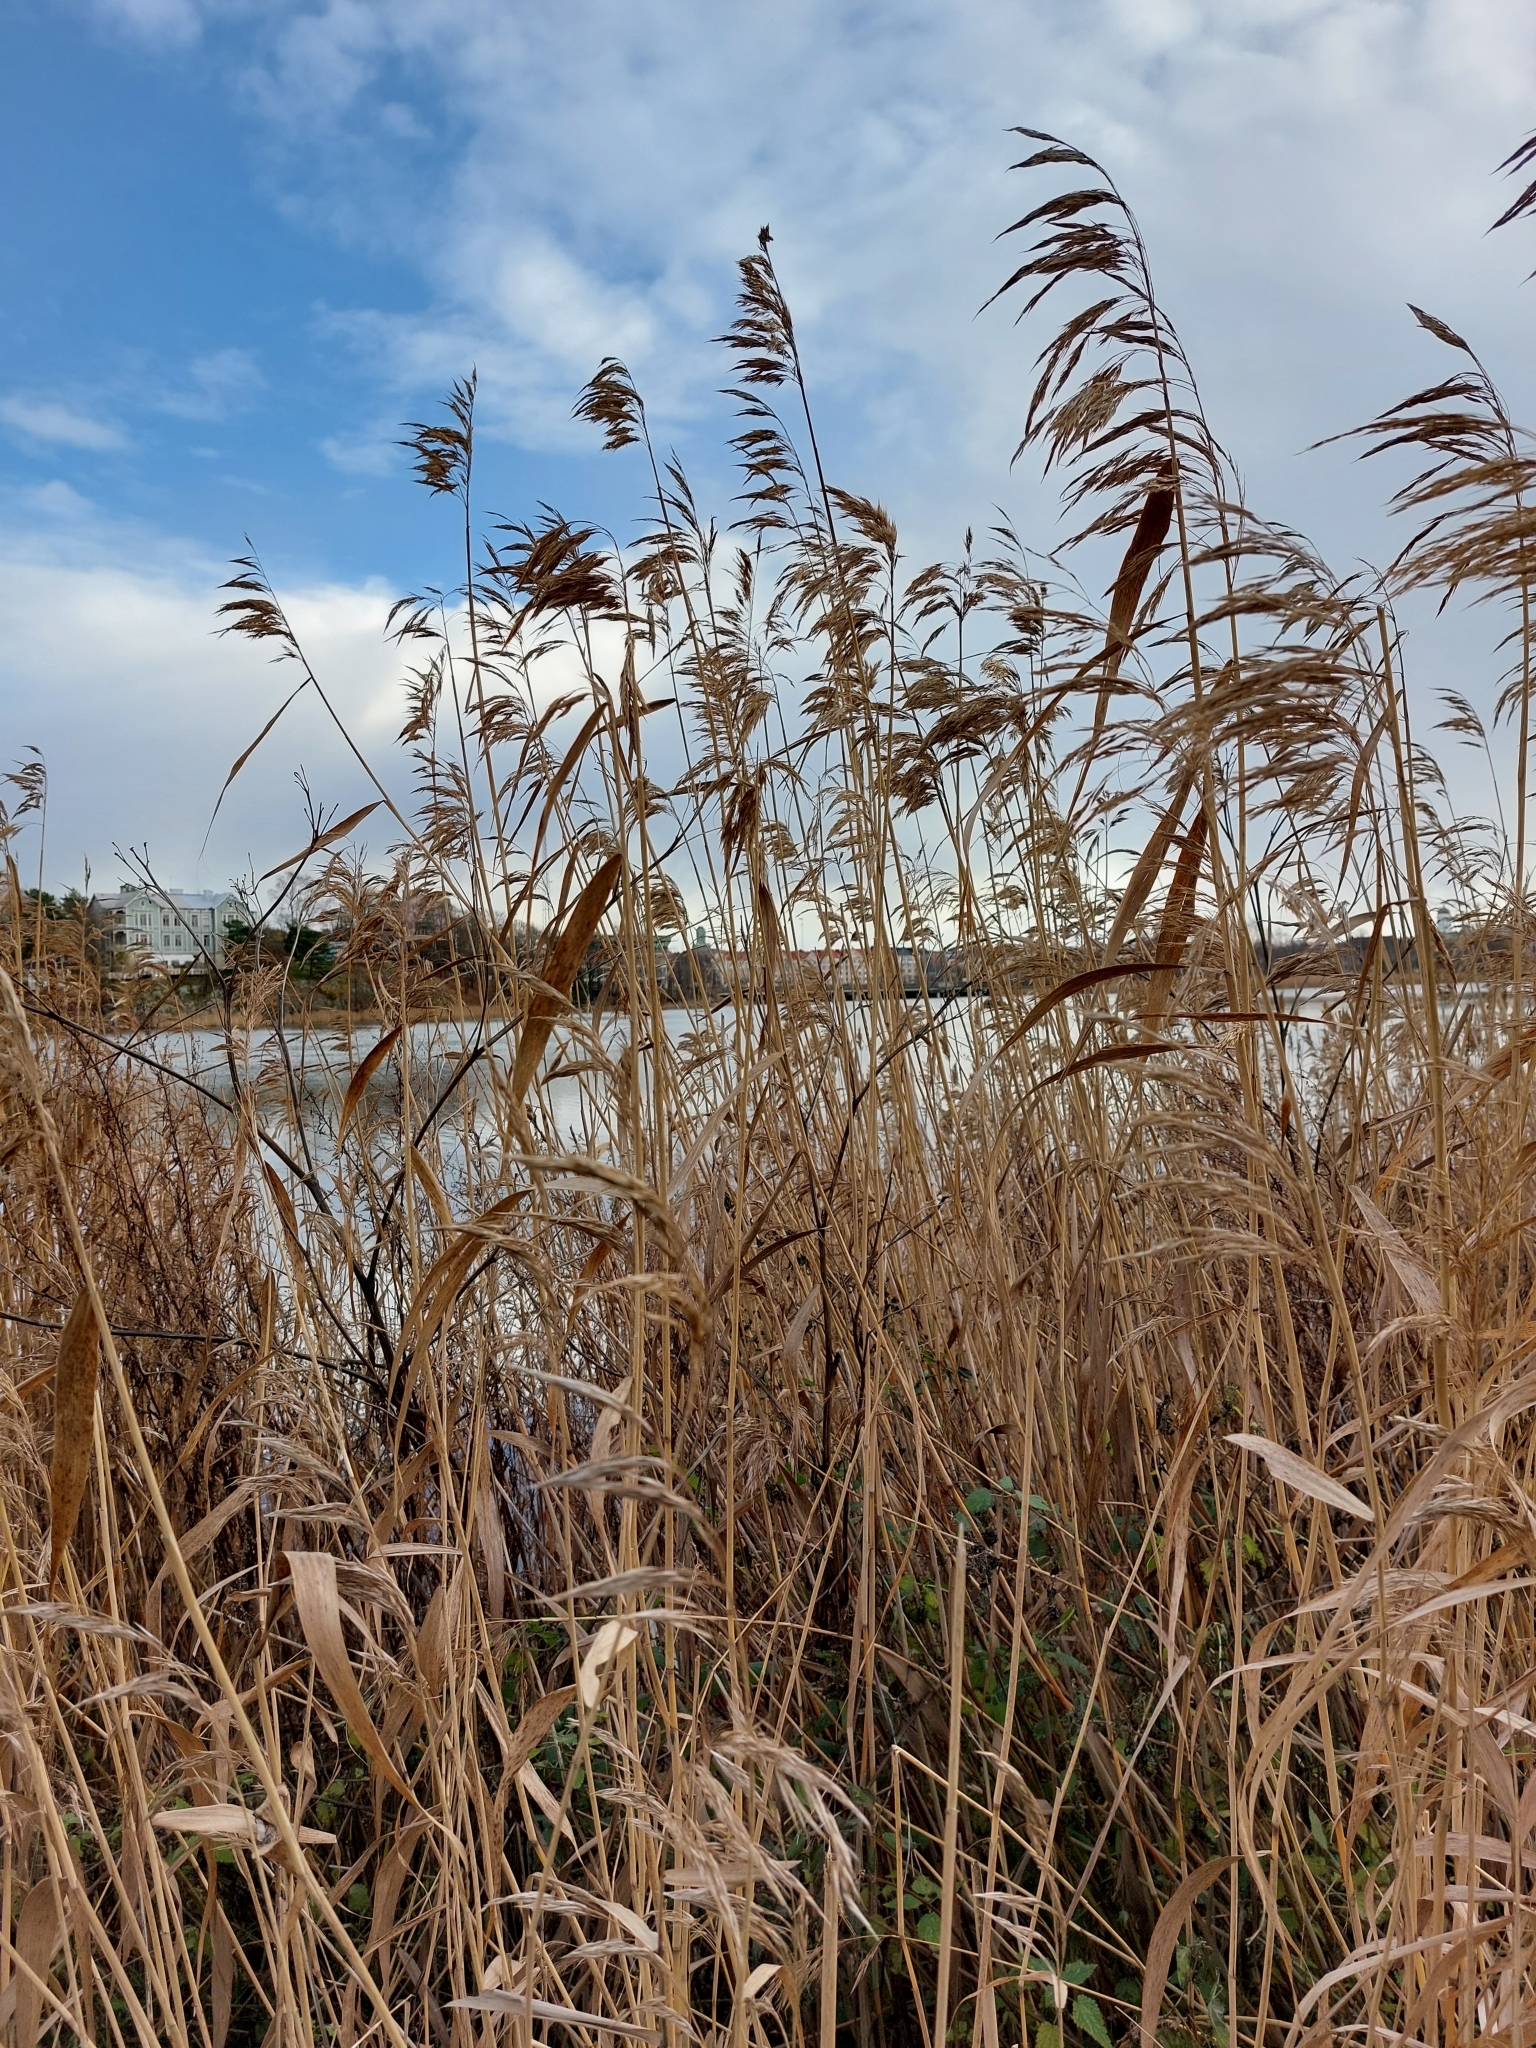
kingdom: Plantae
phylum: Tracheophyta
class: Liliopsida
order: Poales
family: Poaceae
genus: Phragmites
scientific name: Phragmites australis
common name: Common reed
